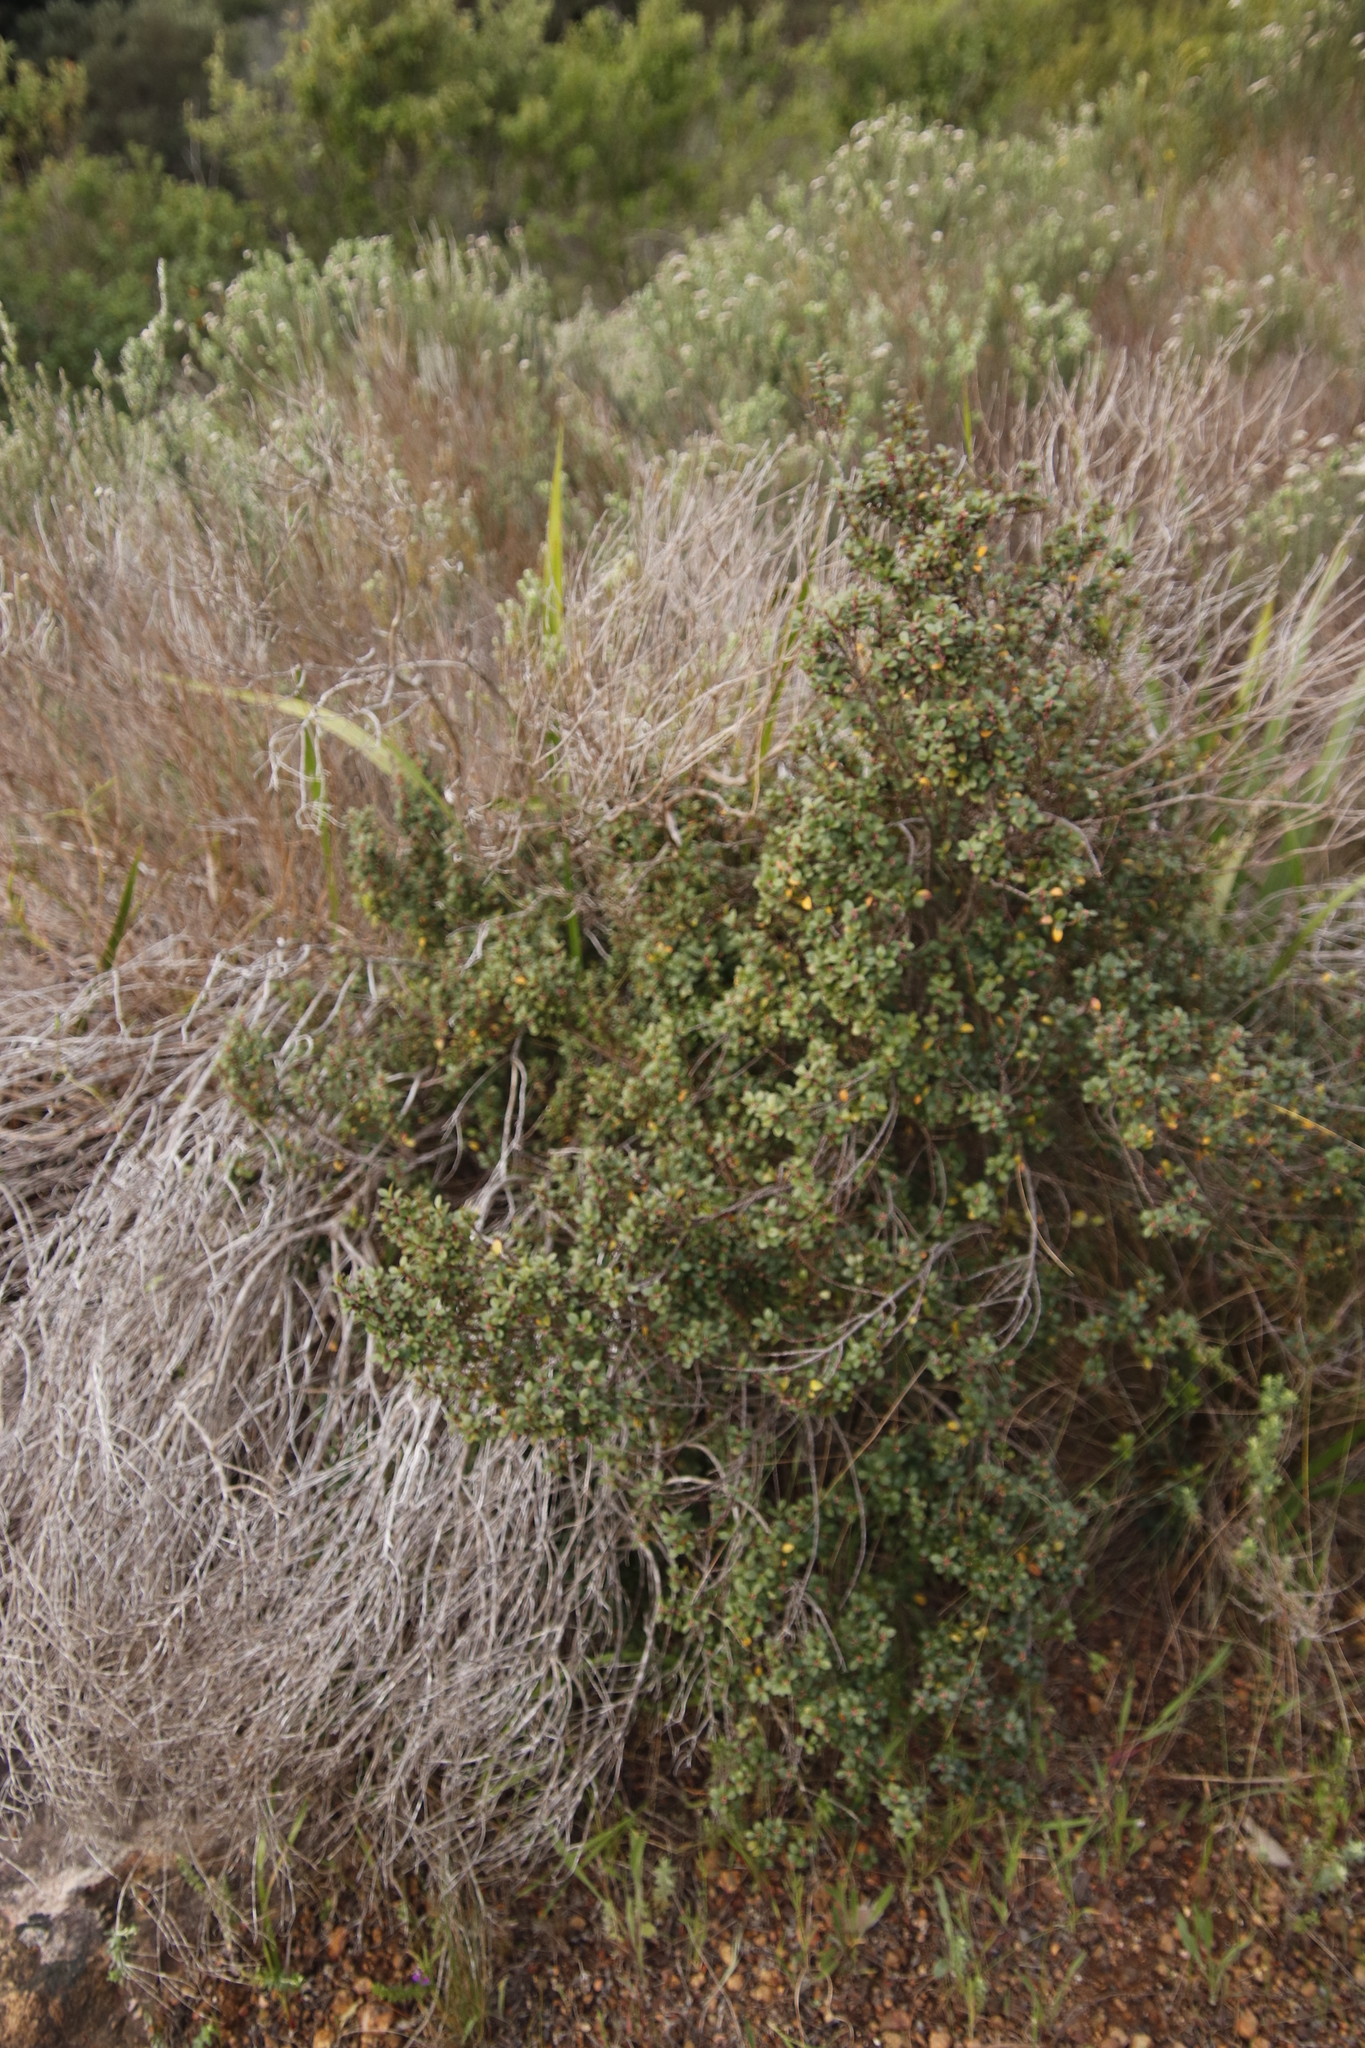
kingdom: Plantae
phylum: Tracheophyta
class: Magnoliopsida
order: Ericales
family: Primulaceae
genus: Myrsine
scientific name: Myrsine africana
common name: African-boxwood
